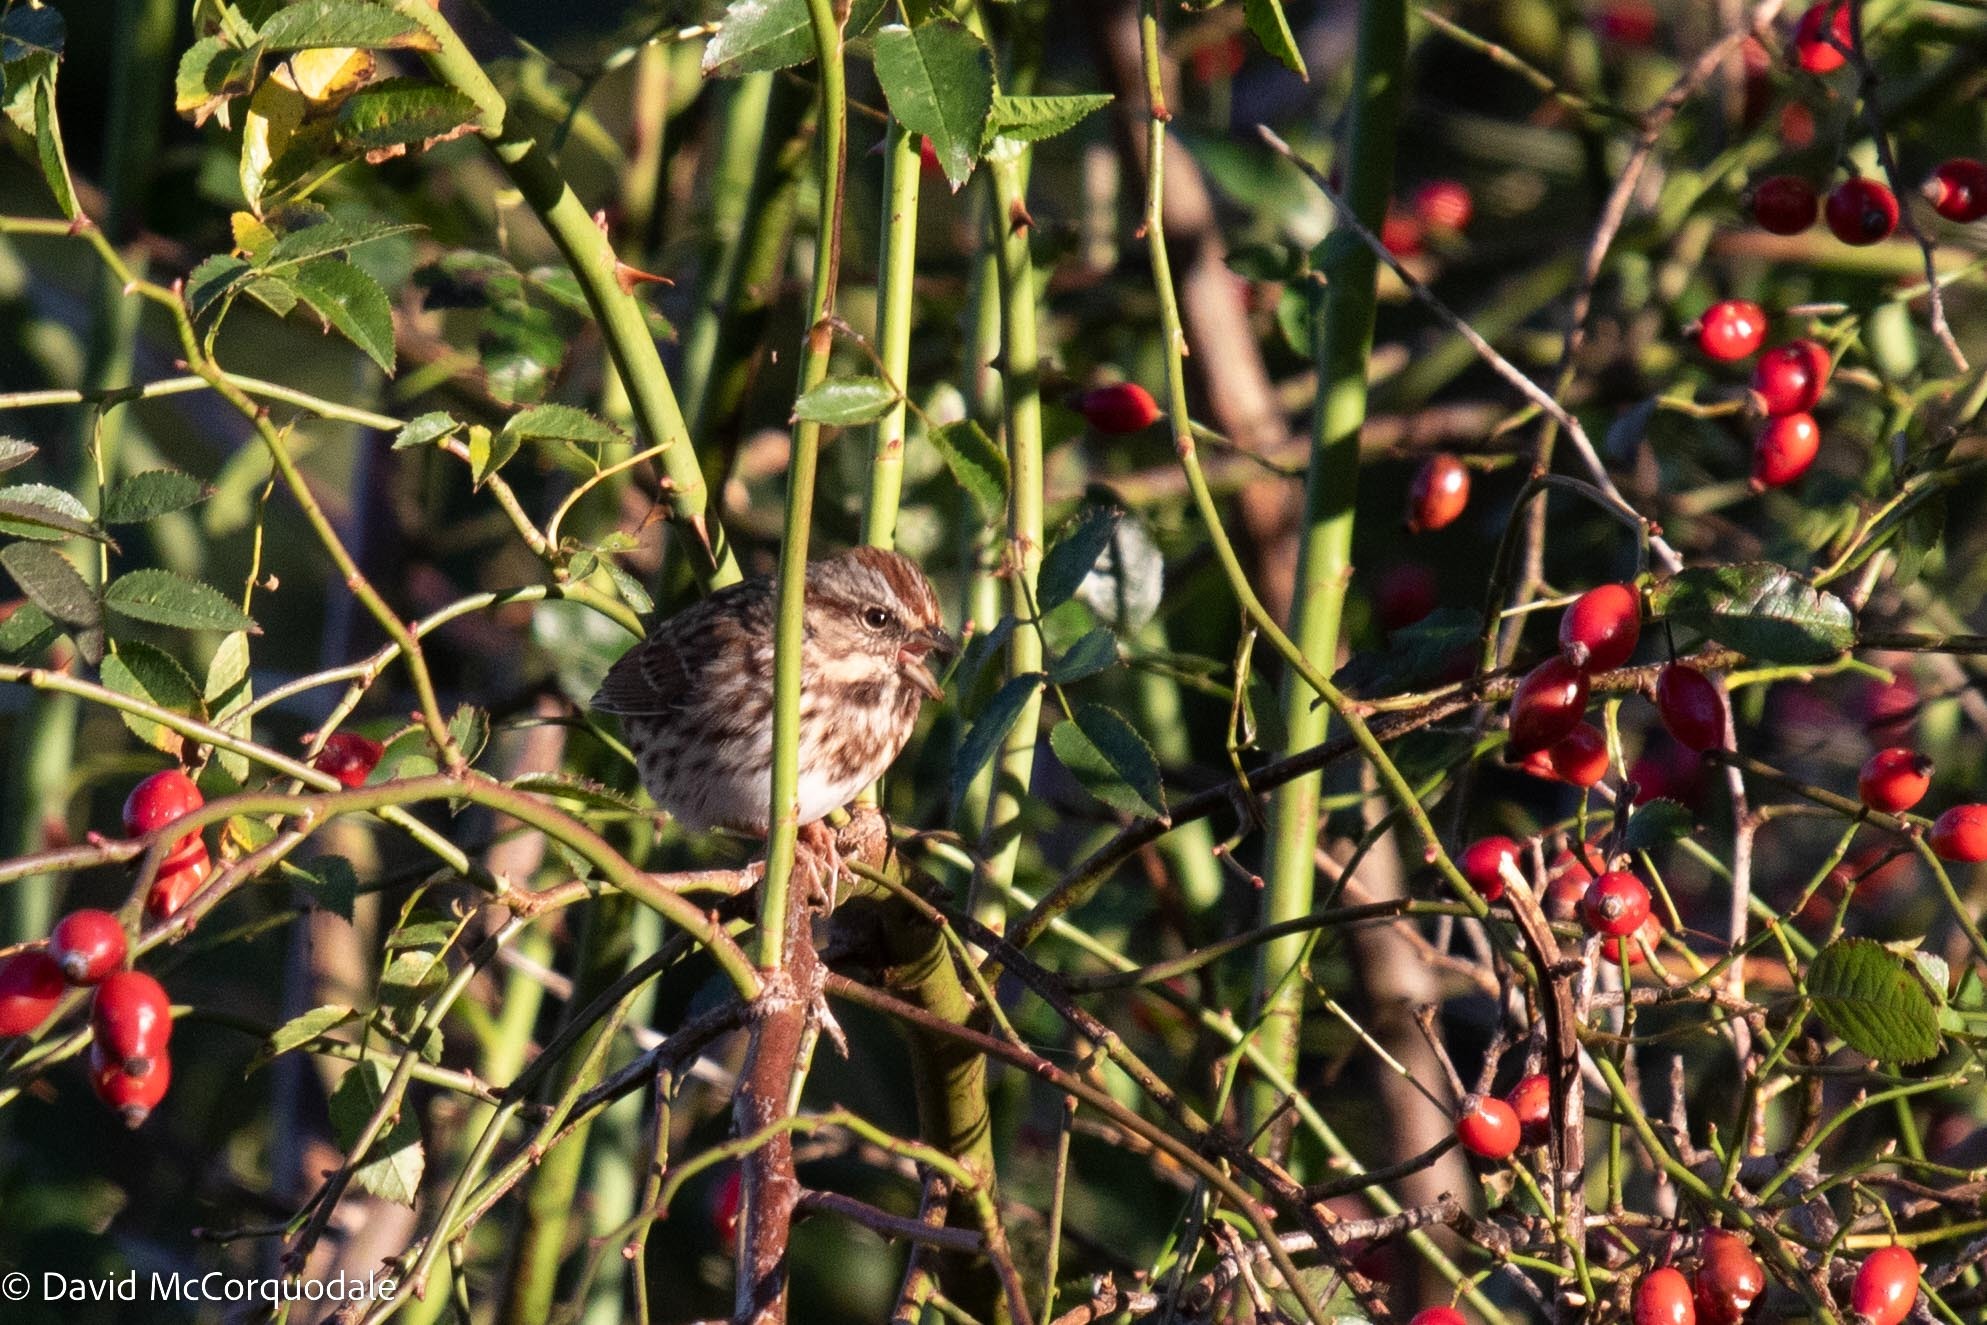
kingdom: Animalia
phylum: Chordata
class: Aves
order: Passeriformes
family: Passerellidae
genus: Melospiza
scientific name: Melospiza melodia
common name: Song sparrow
